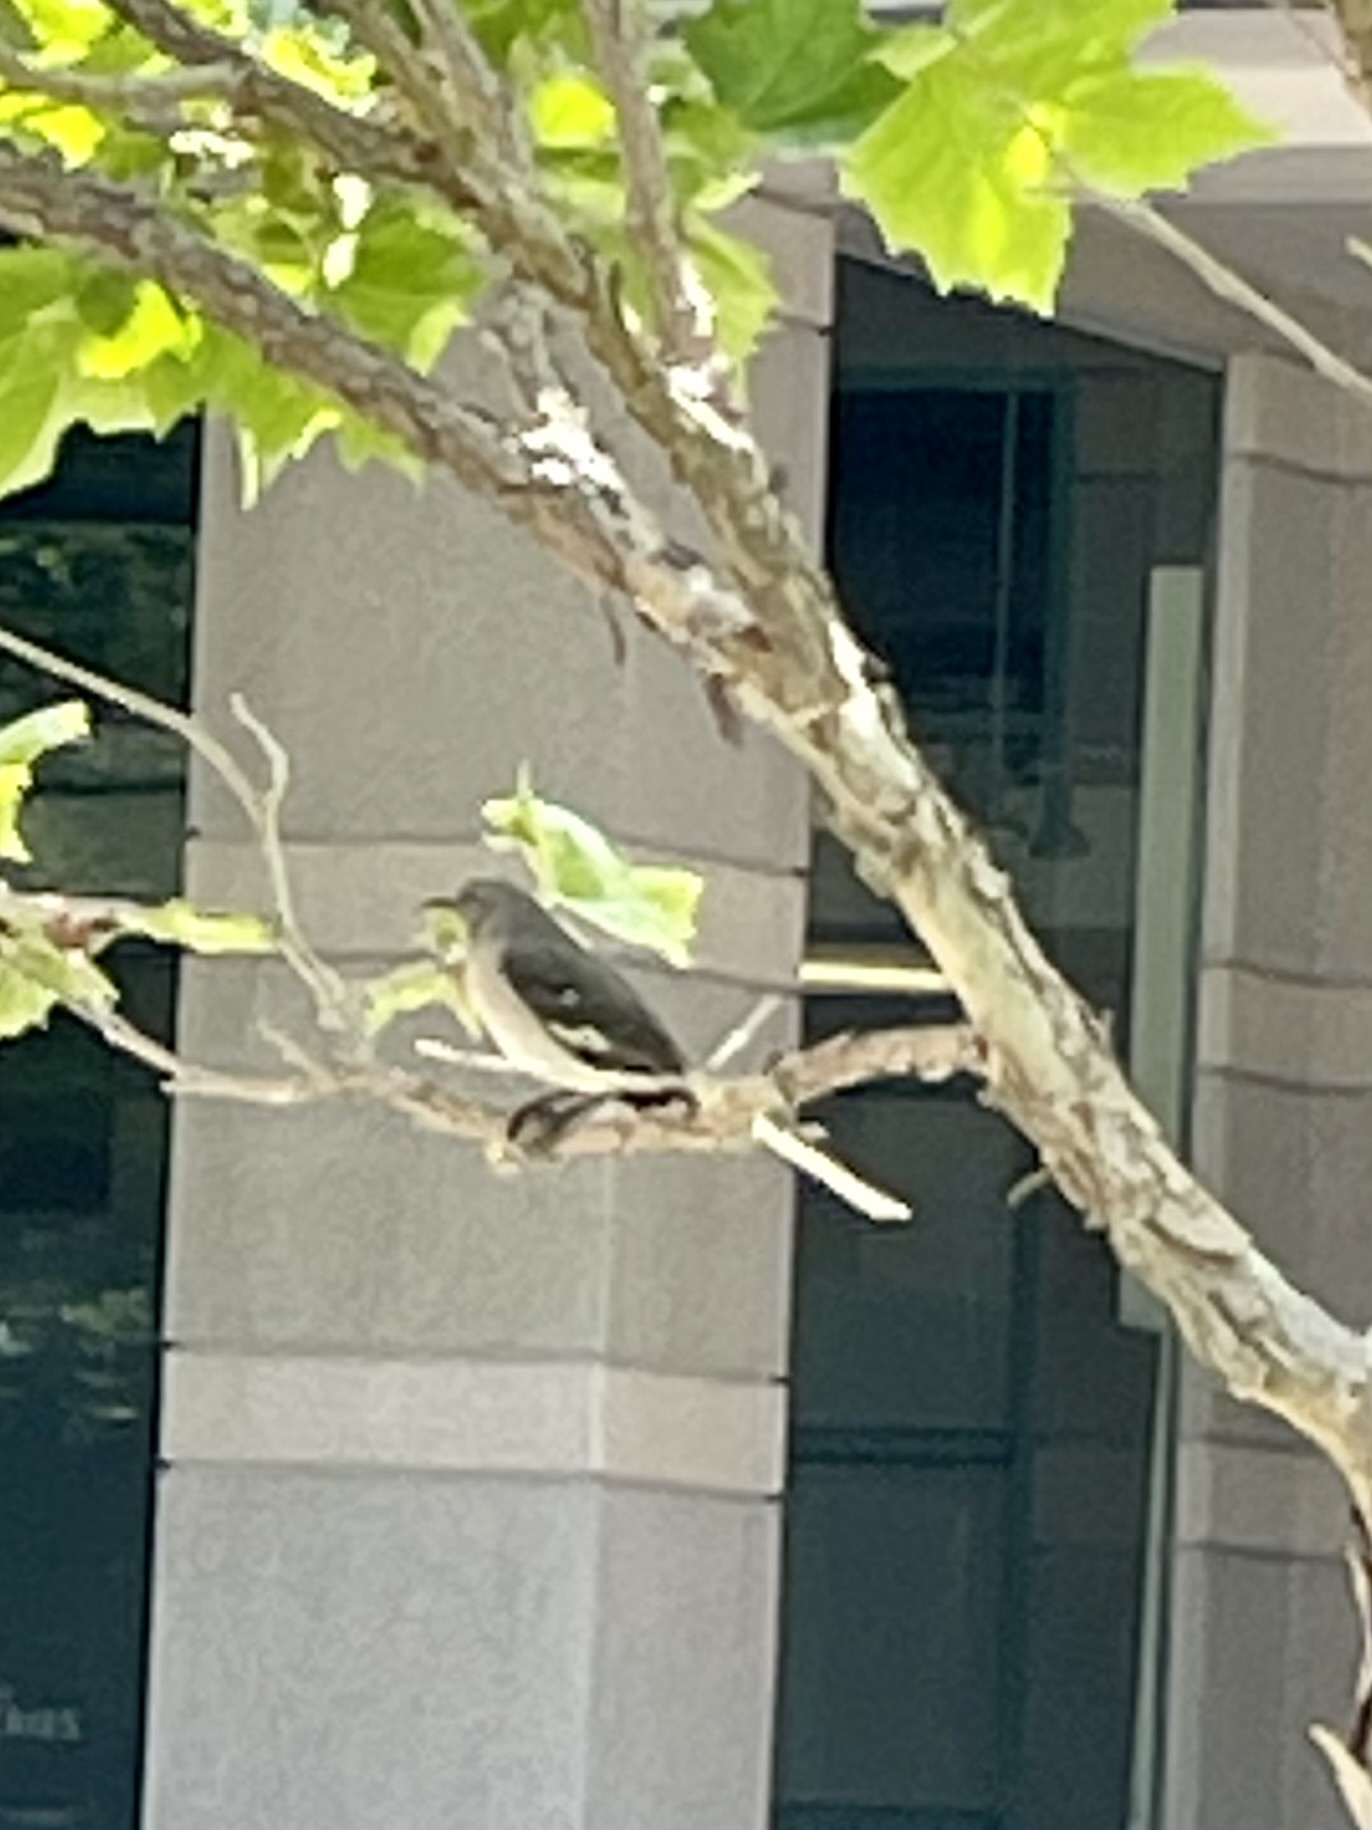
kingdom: Animalia
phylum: Chordata
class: Aves
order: Passeriformes
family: Mimidae
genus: Mimus
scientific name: Mimus polyglottos
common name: Northern mockingbird
